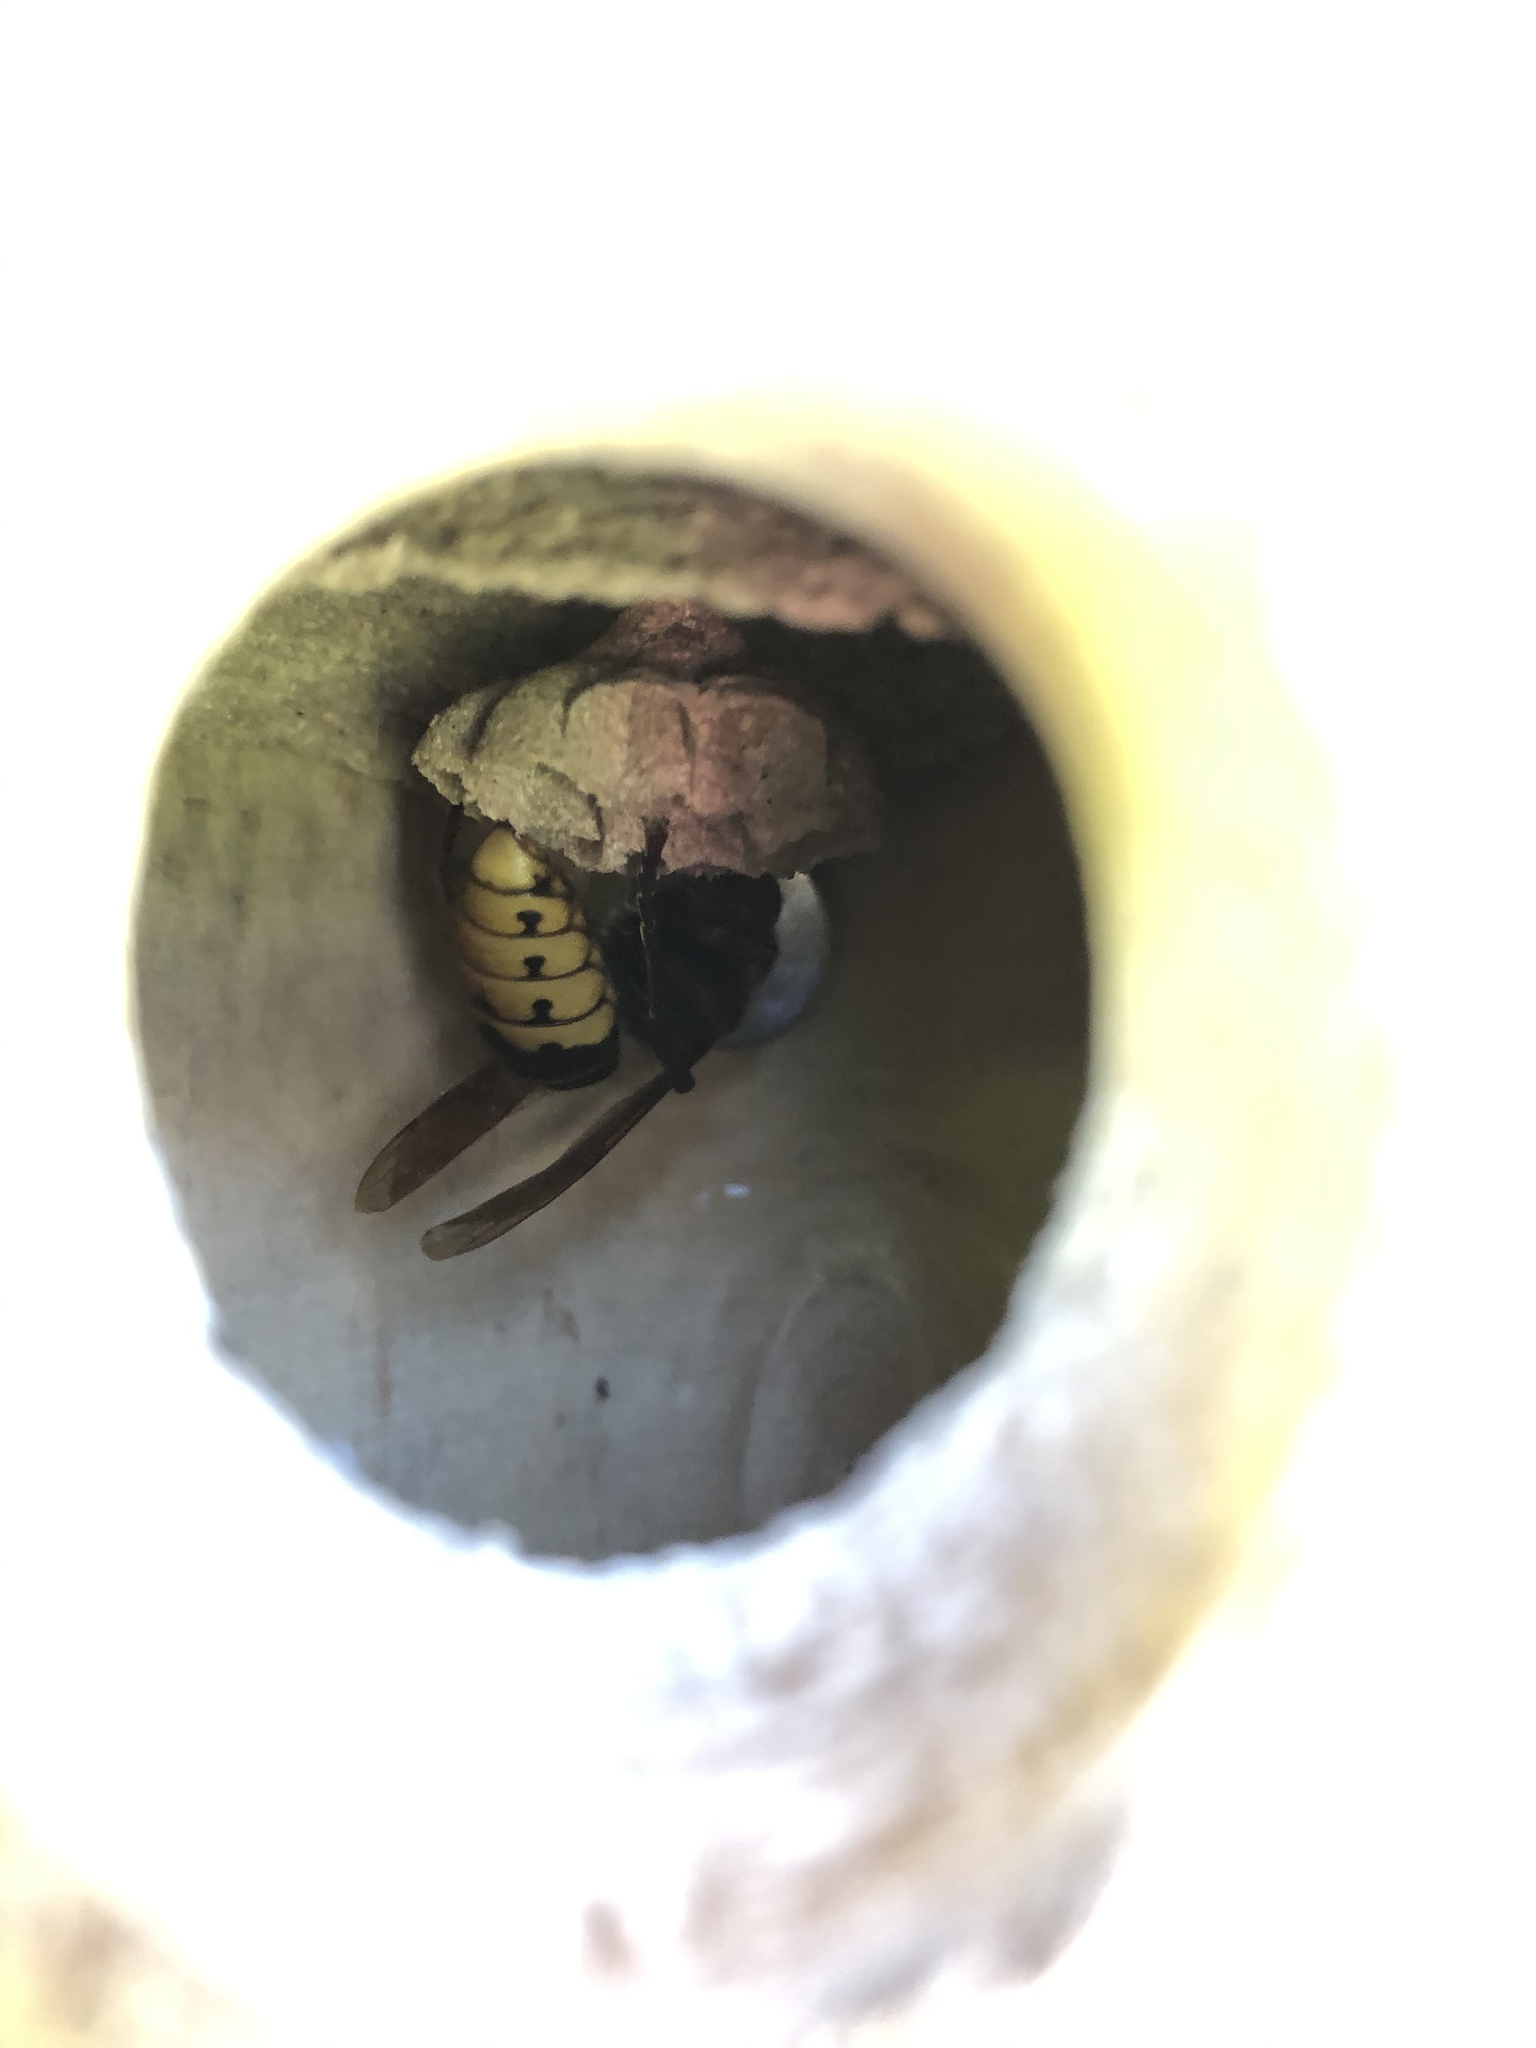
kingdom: Animalia
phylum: Arthropoda
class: Insecta
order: Hymenoptera
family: Vespidae
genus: Vespa
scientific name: Vespa crabro
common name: Hornet
